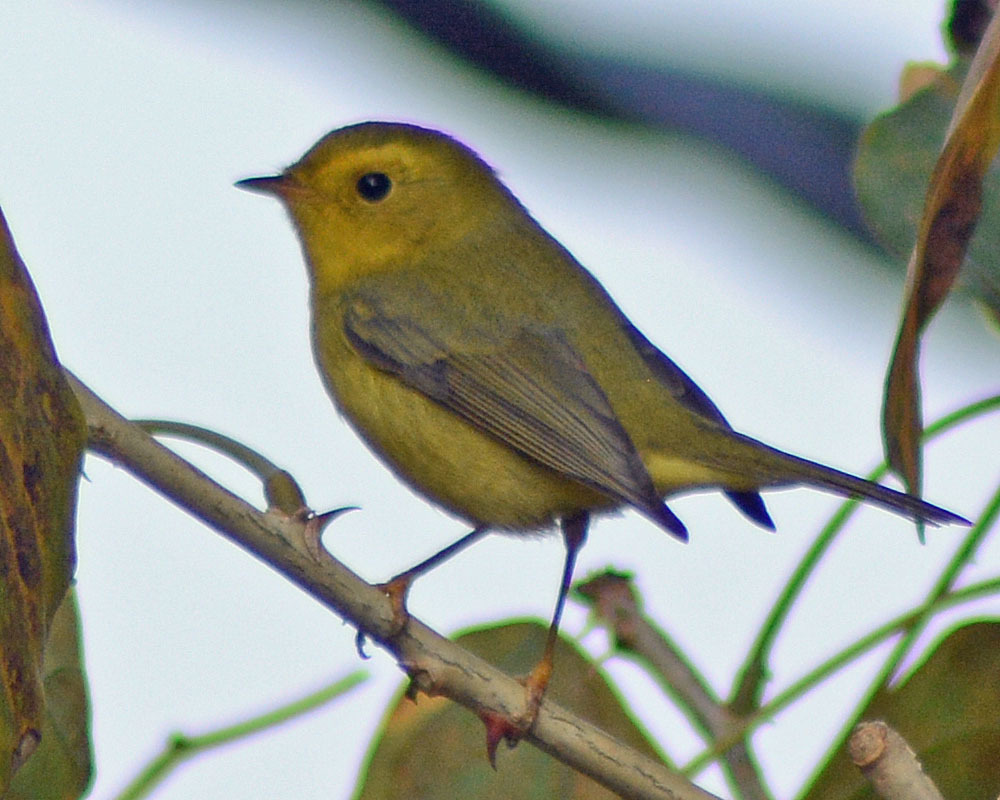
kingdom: Animalia
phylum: Chordata
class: Aves
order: Passeriformes
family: Parulidae
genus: Cardellina
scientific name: Cardellina pusilla
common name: Wilson's warbler
